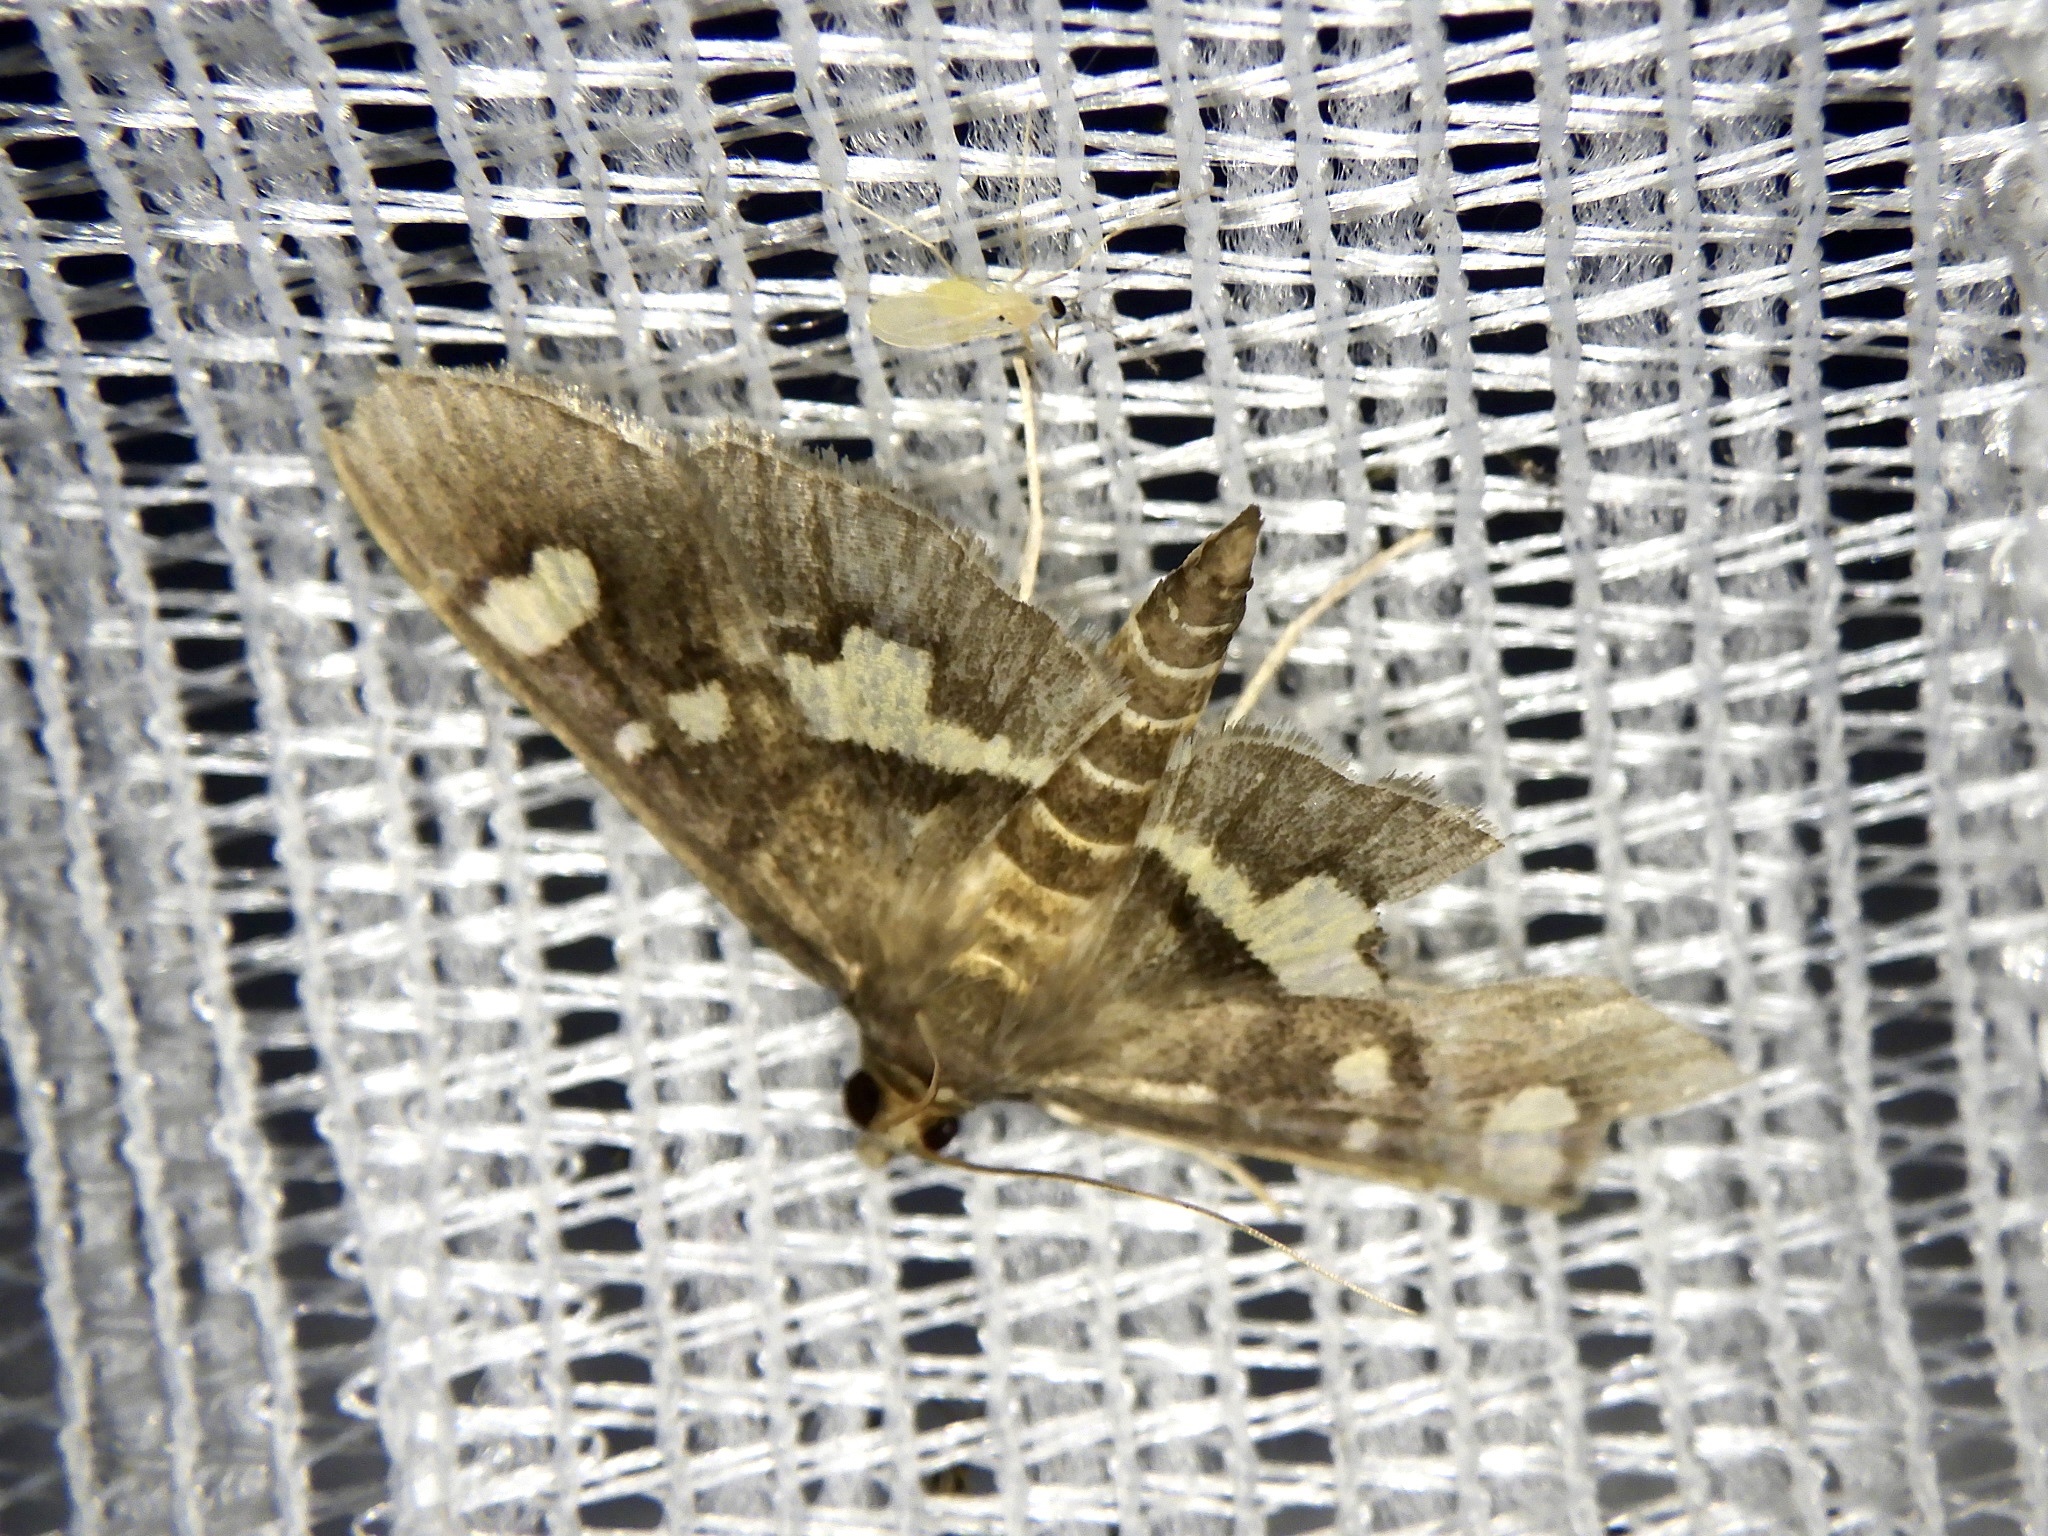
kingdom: Animalia
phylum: Arthropoda
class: Insecta
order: Lepidoptera
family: Crambidae
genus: Uresiphita
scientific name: Uresiphita tricolor
